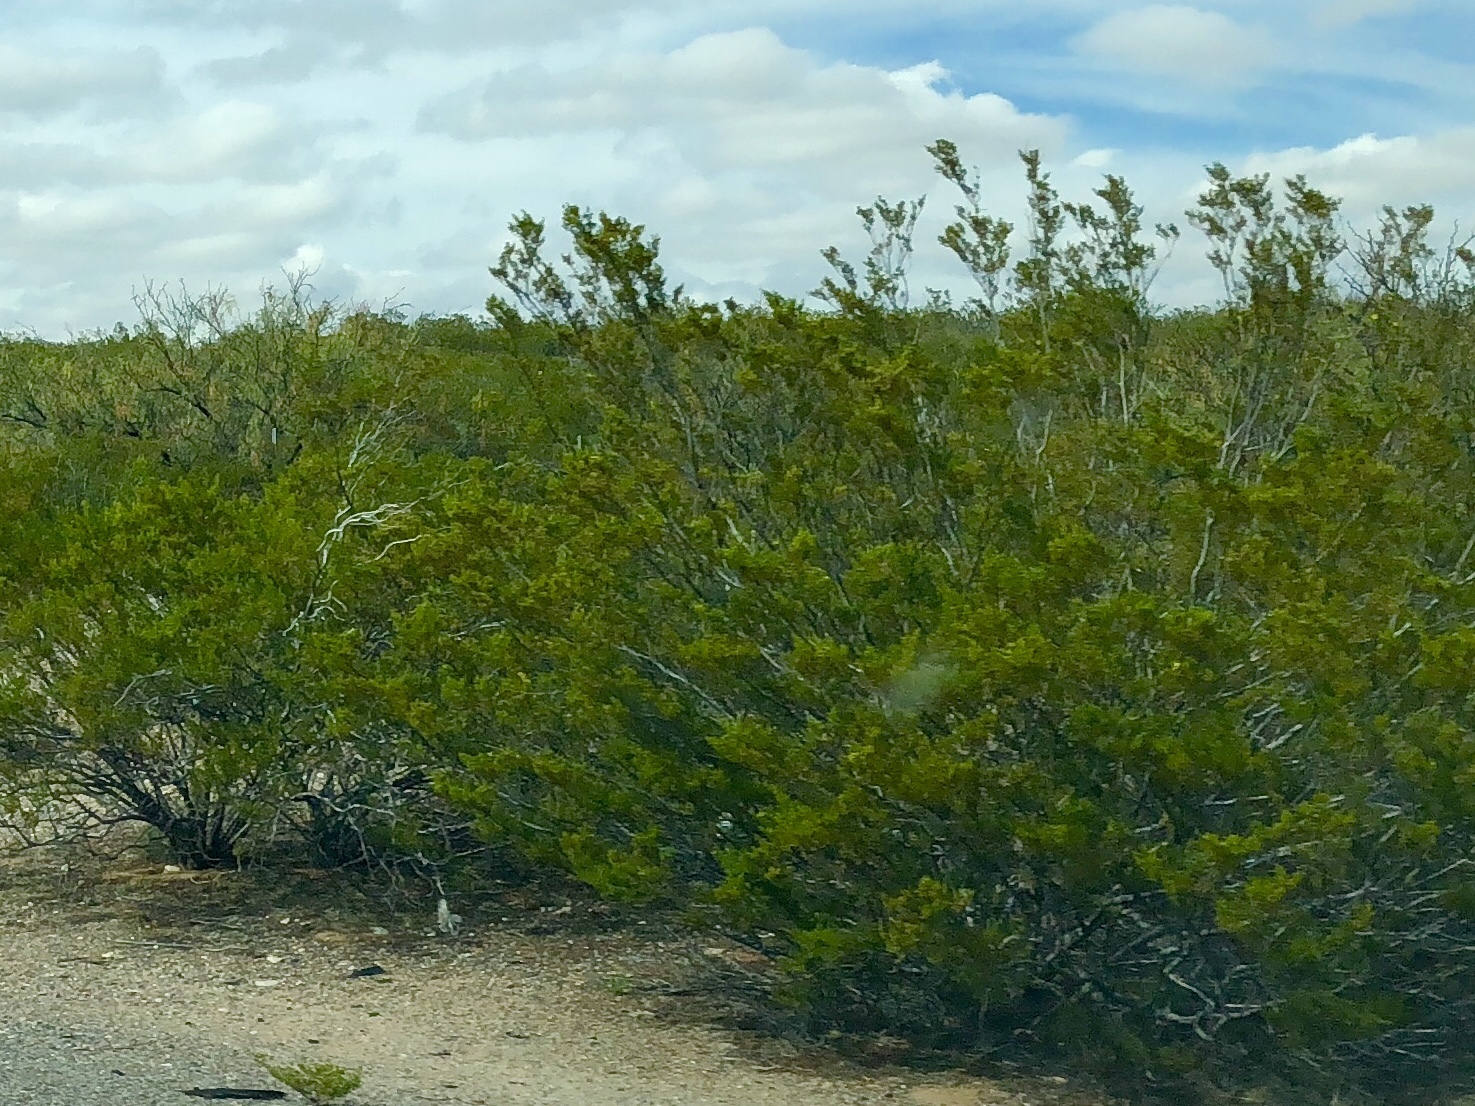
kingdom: Plantae
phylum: Tracheophyta
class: Magnoliopsida
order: Zygophyllales
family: Zygophyllaceae
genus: Larrea
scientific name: Larrea tridentata
